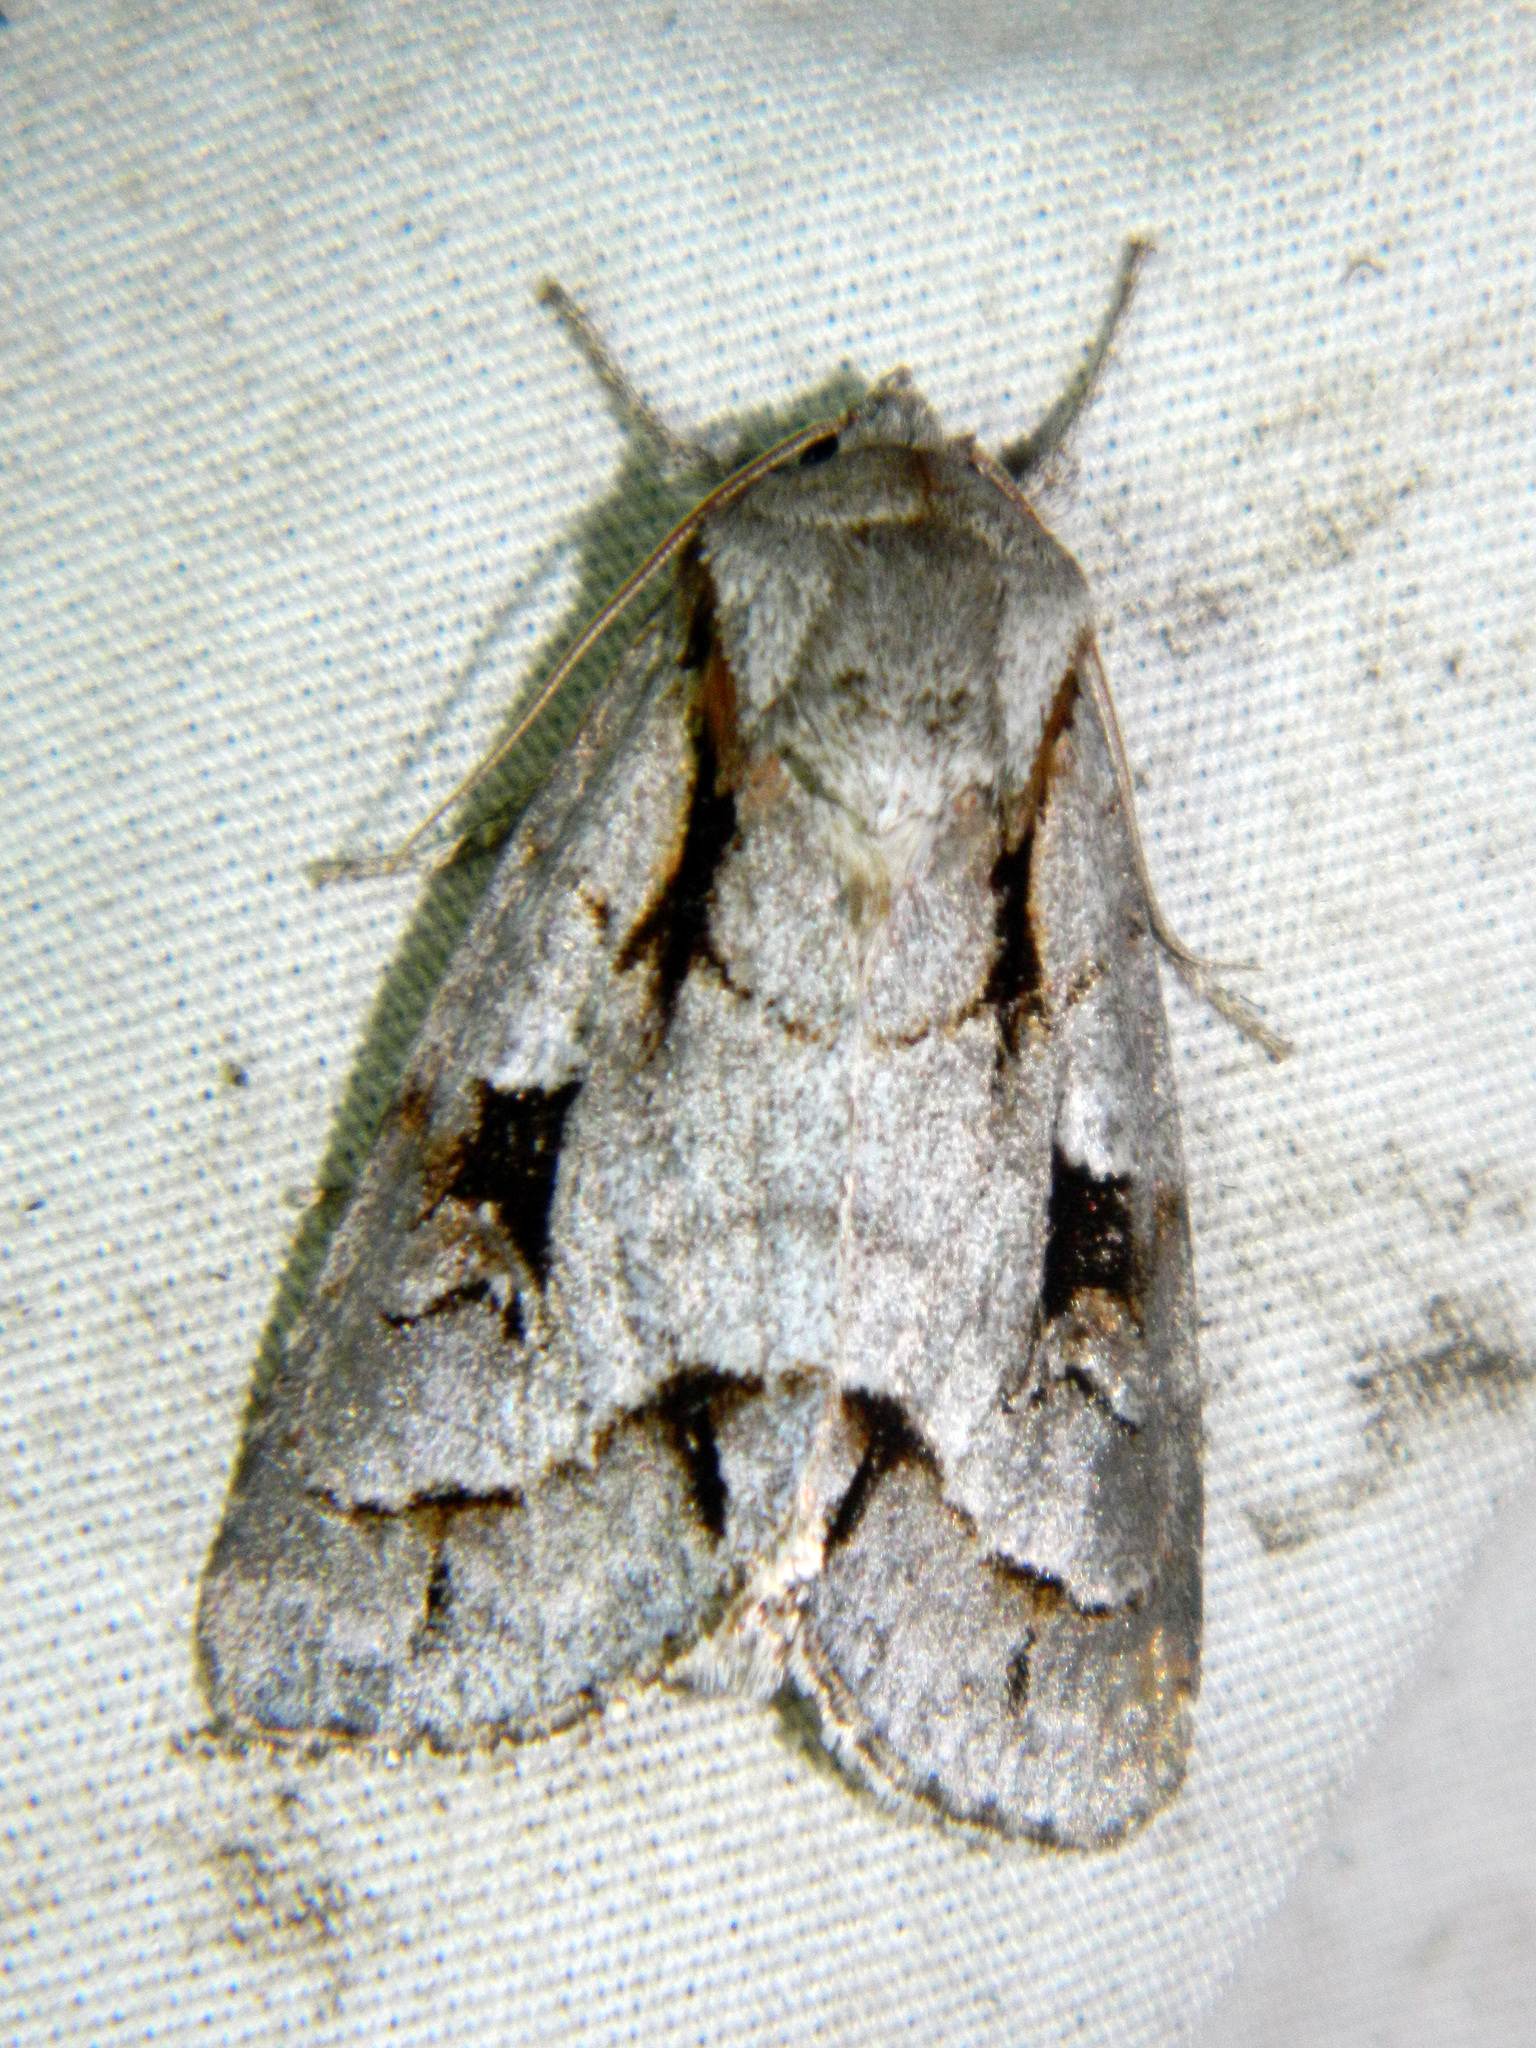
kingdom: Animalia
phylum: Arthropoda
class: Insecta
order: Lepidoptera
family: Noctuidae
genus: Acronicta
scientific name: Acronicta quadrata
